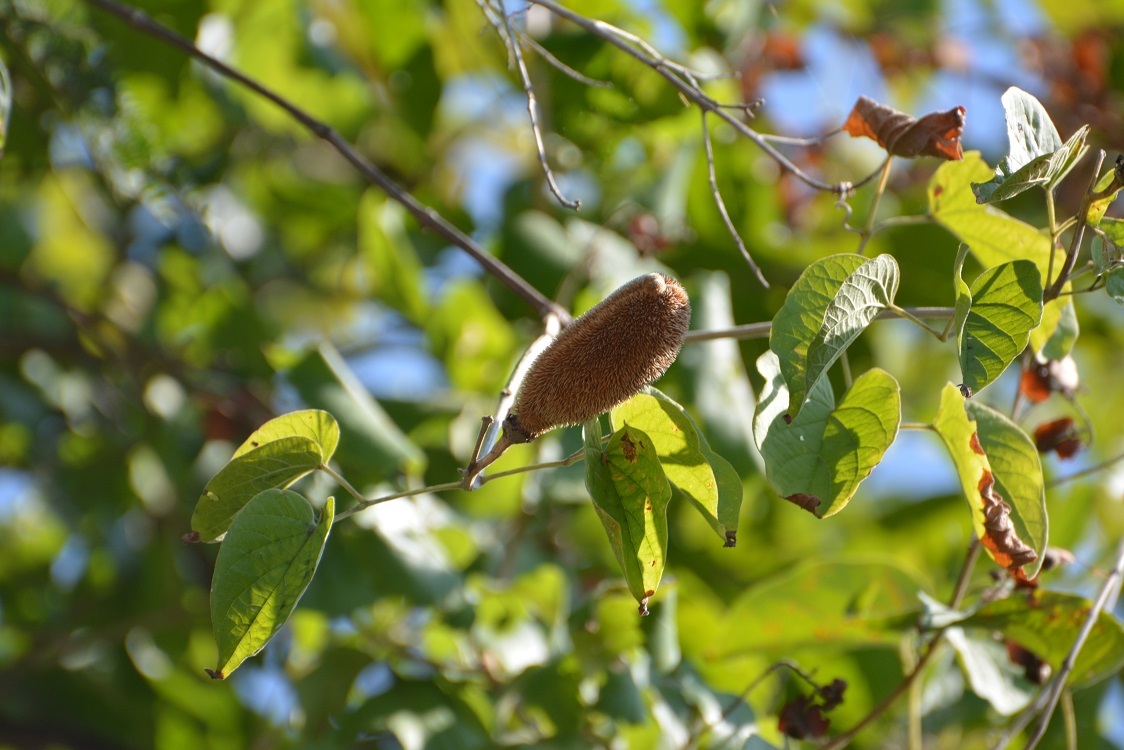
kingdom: Plantae
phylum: Tracheophyta
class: Magnoliopsida
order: Lamiales
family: Bignoniaceae
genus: Amphilophium
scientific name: Amphilophium crucigerum
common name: Monkey comb
